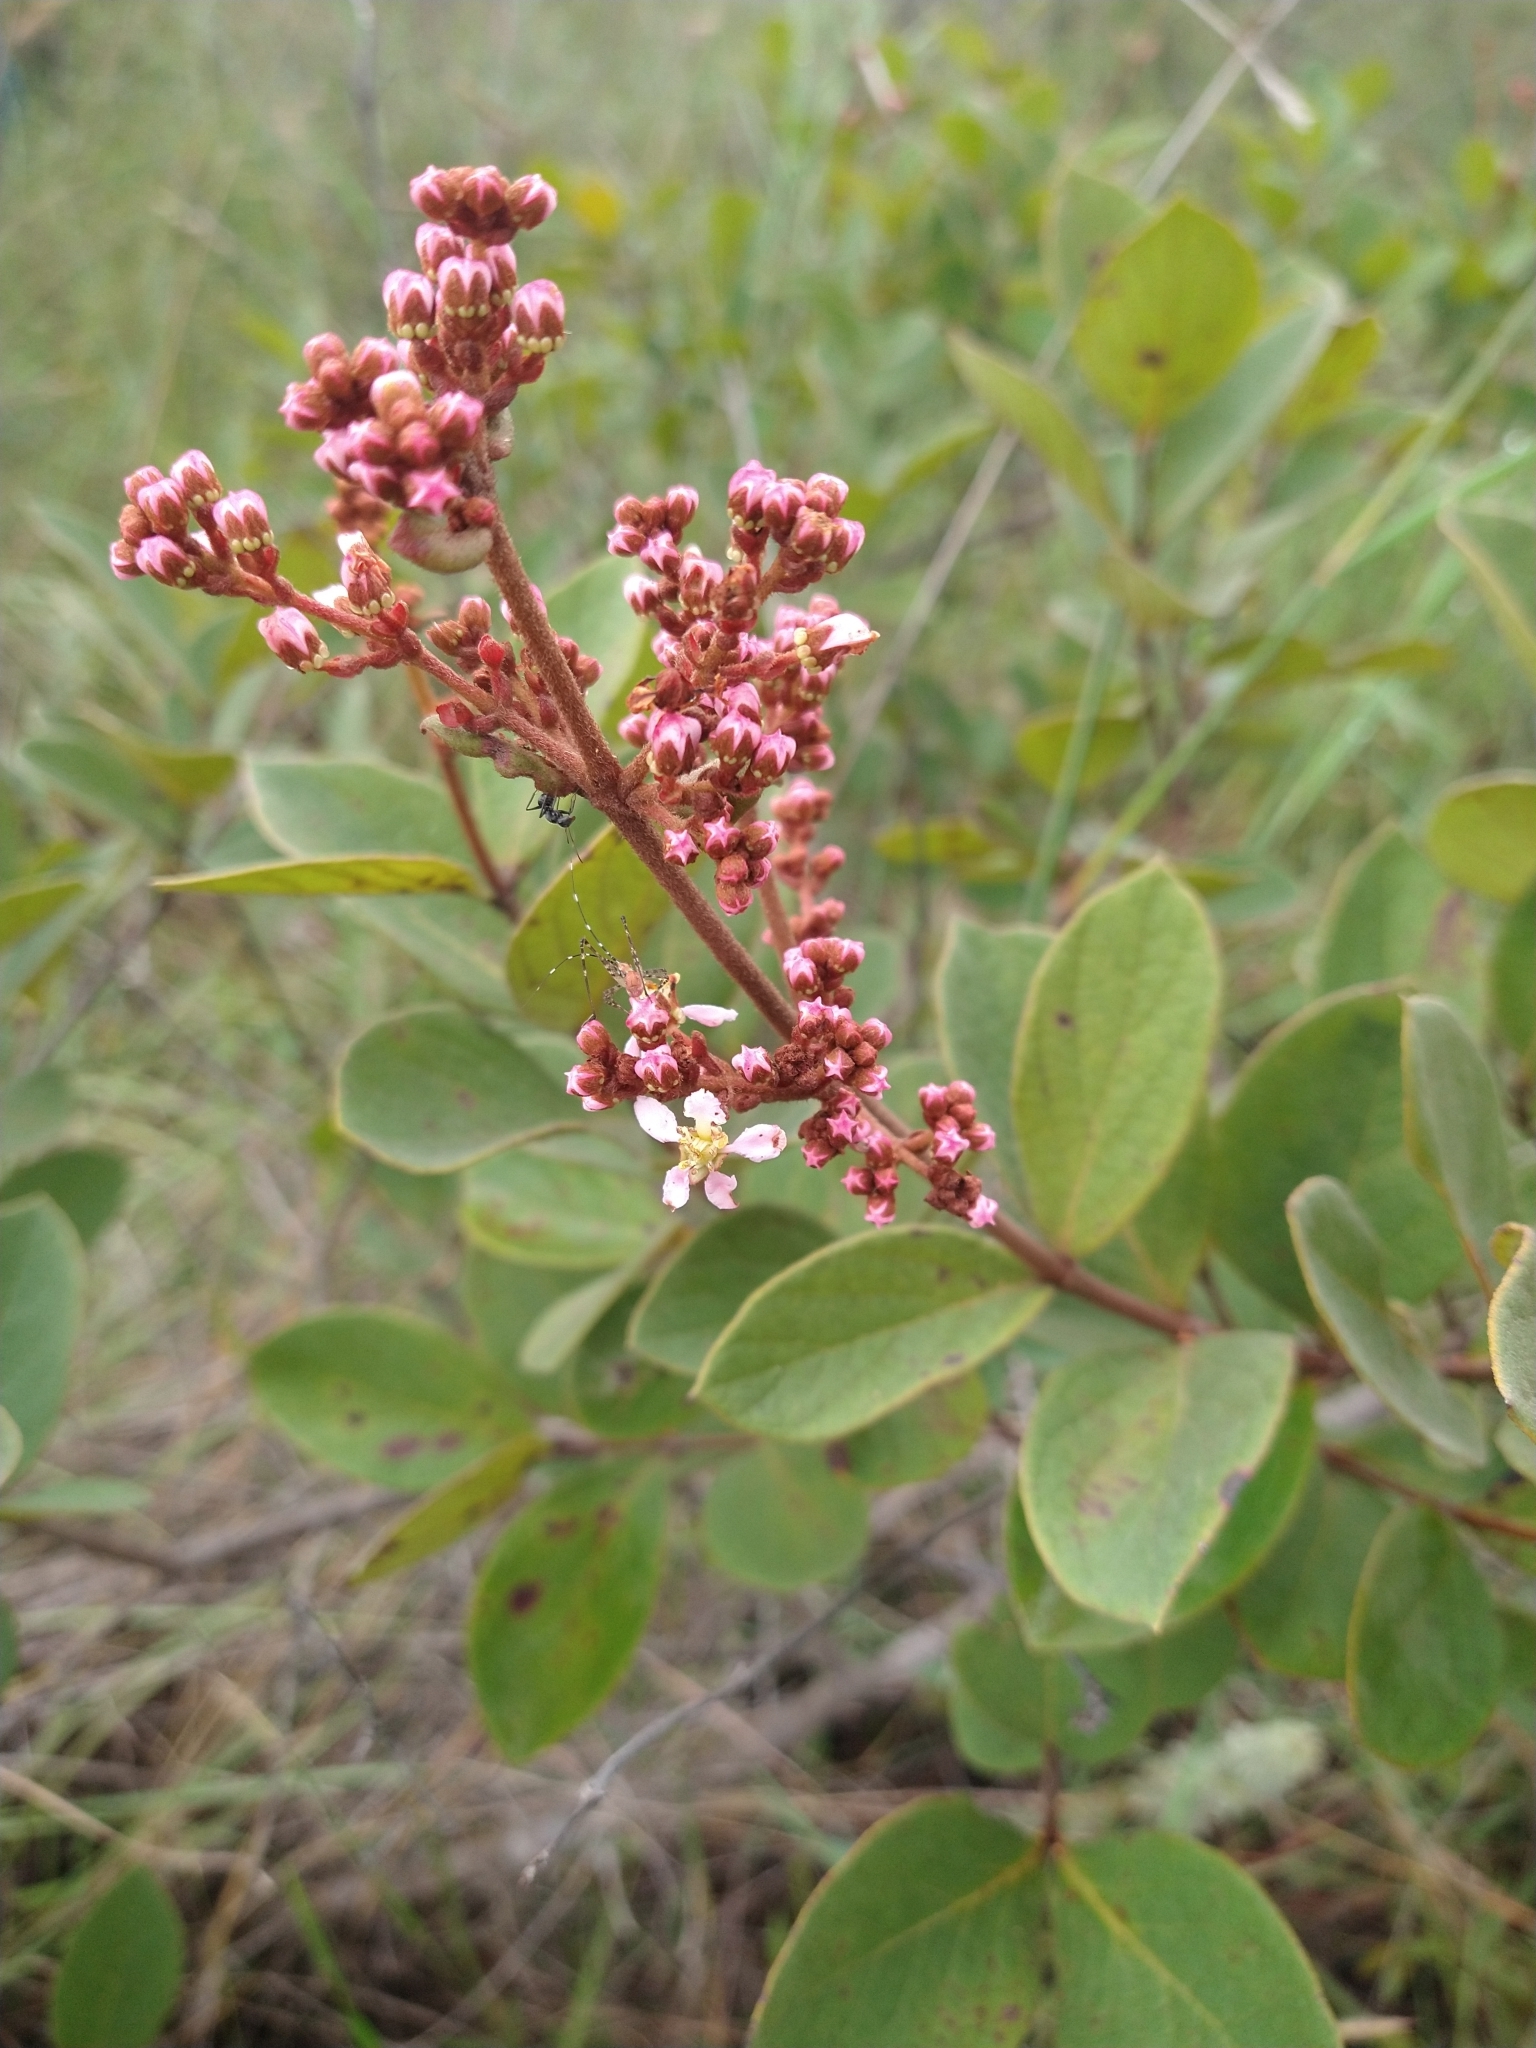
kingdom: Plantae
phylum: Tracheophyta
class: Magnoliopsida
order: Malpighiales
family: Malpighiaceae
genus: Heteropterys
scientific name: Heteropterys campestris
